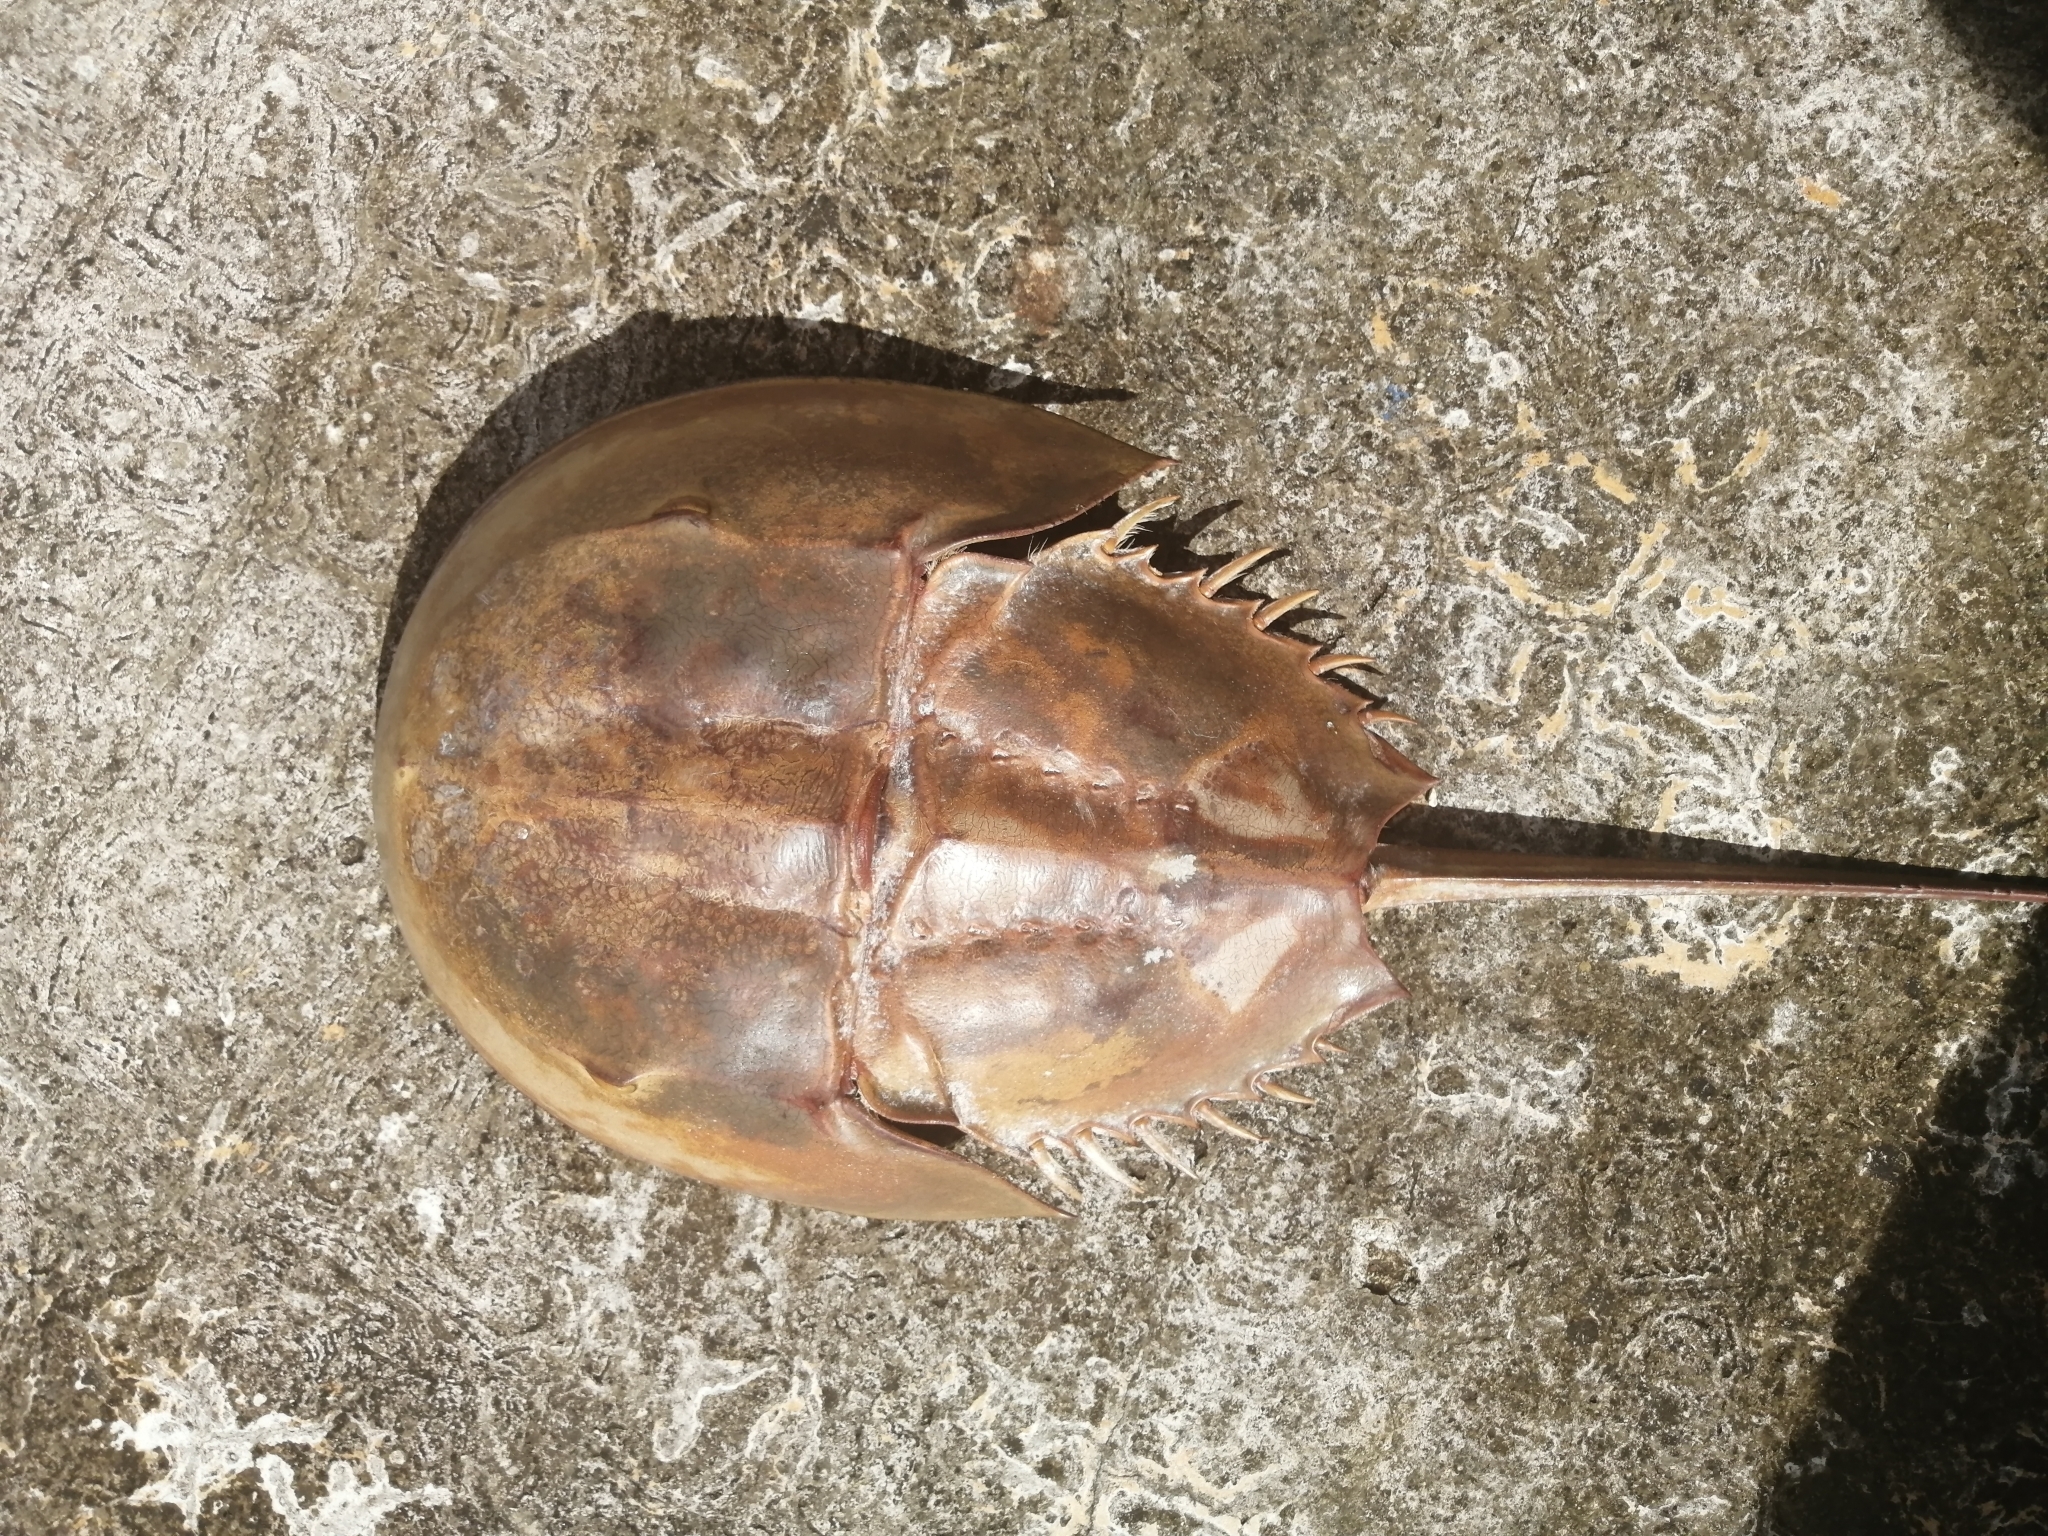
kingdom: Animalia
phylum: Arthropoda
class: Merostomata
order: Xiphosurida
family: Limulidae
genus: Limulus
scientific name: Limulus polyphemus
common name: Horseshoe crab
